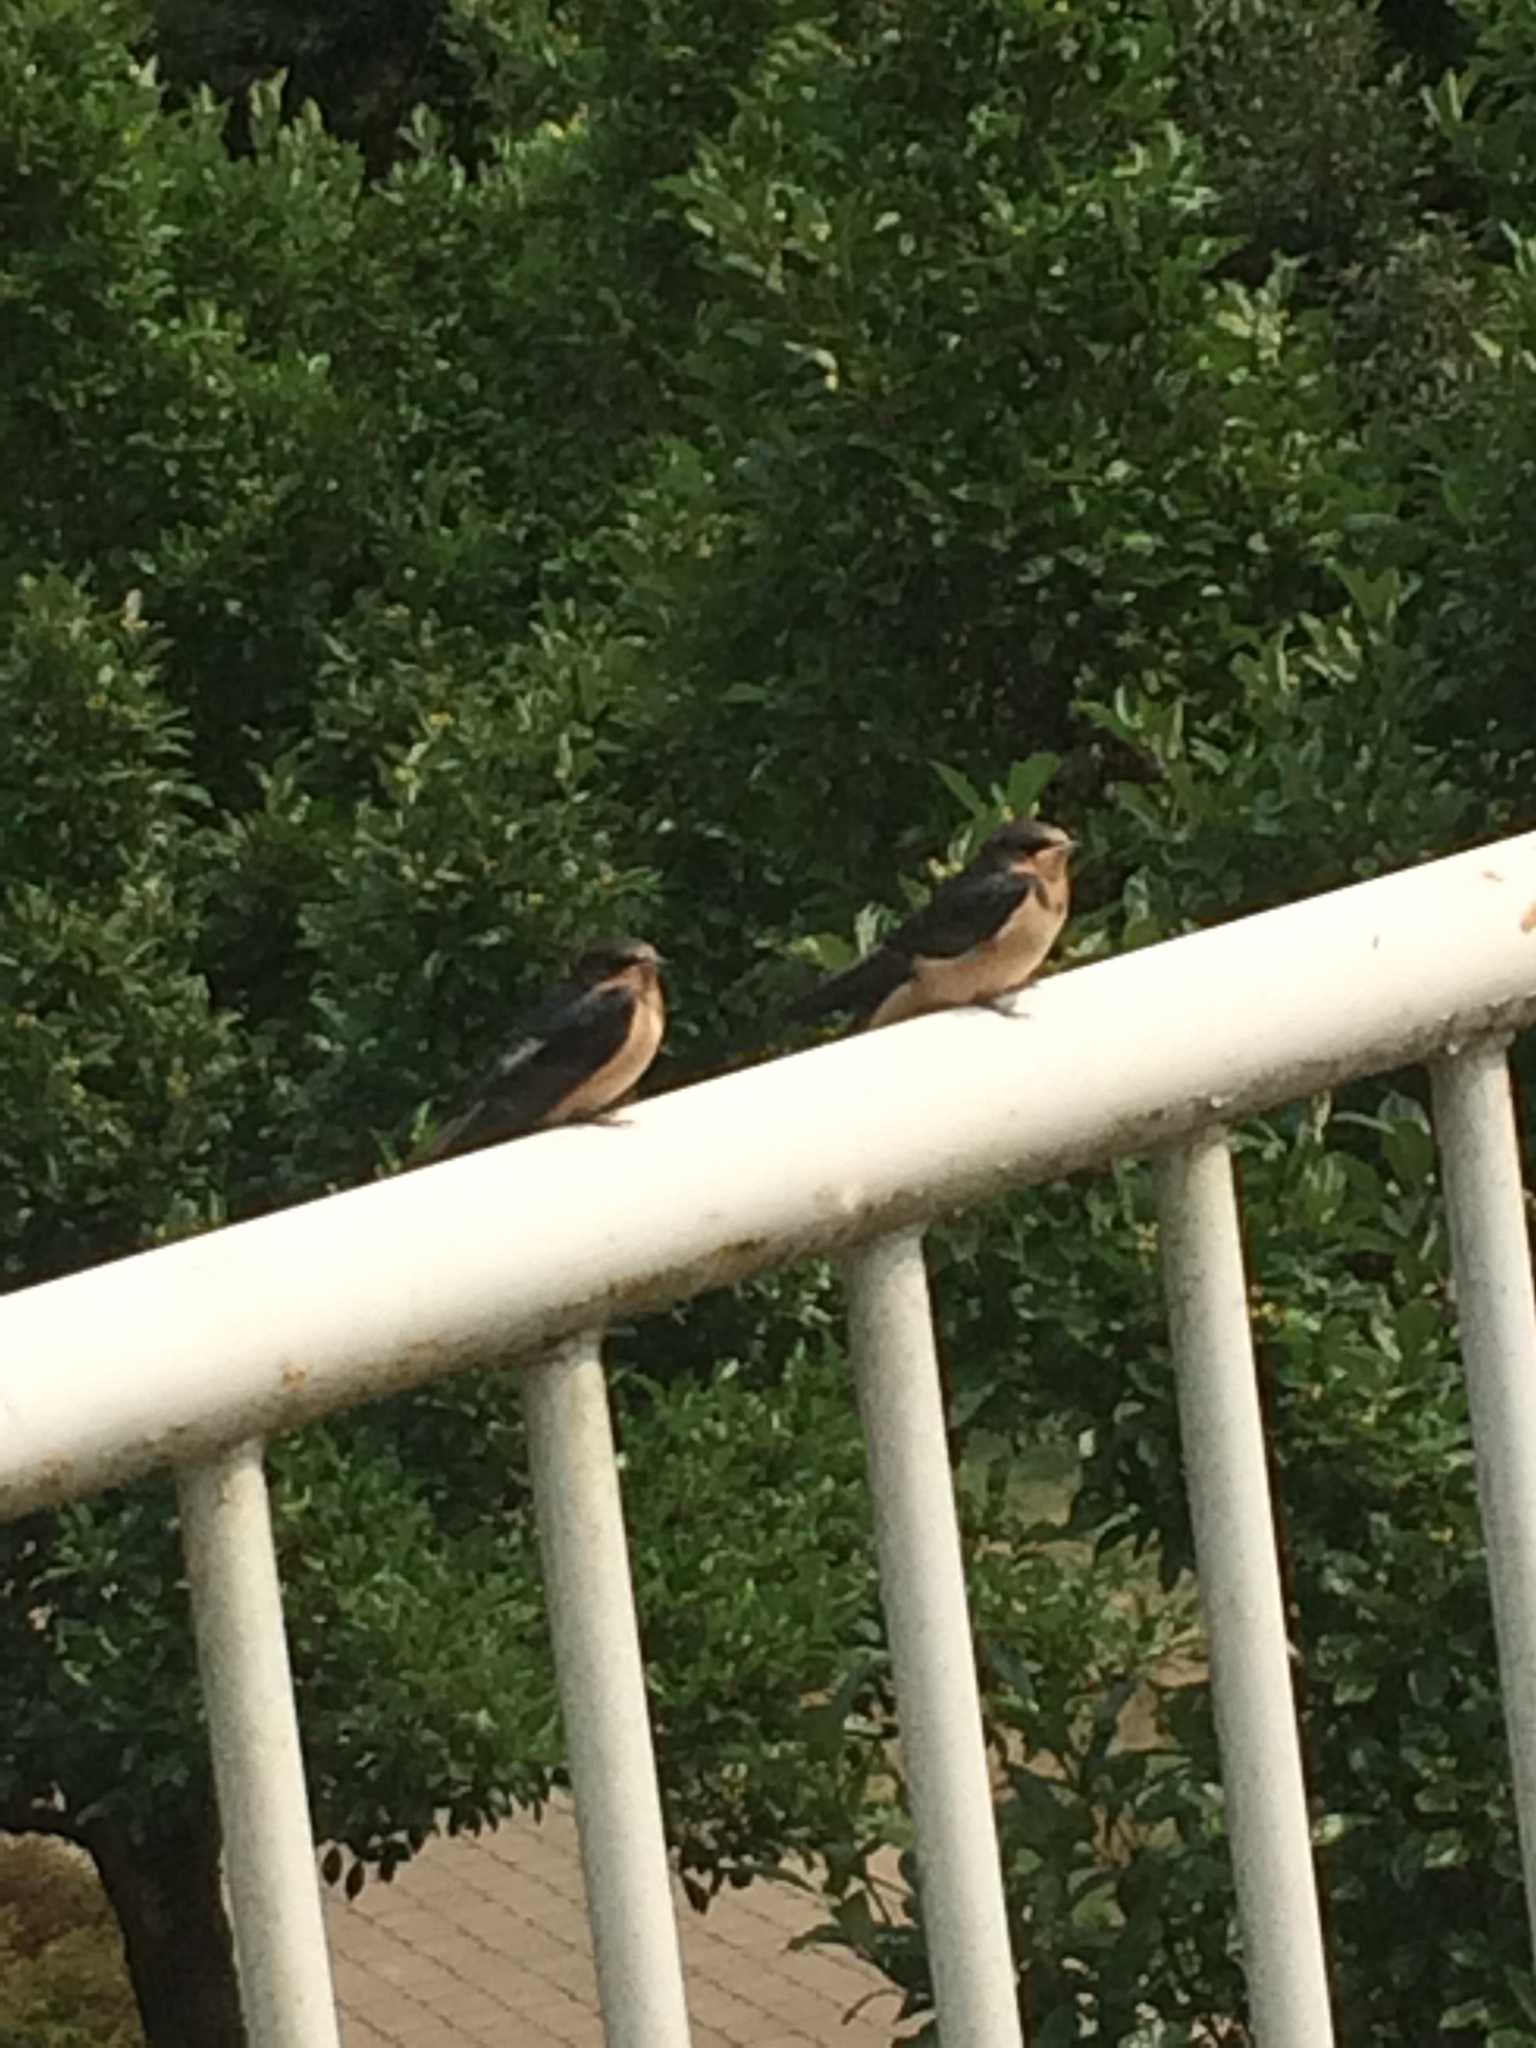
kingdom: Animalia
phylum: Chordata
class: Aves
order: Passeriformes
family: Hirundinidae
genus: Hirundo
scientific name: Hirundo rustica
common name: Barn swallow
